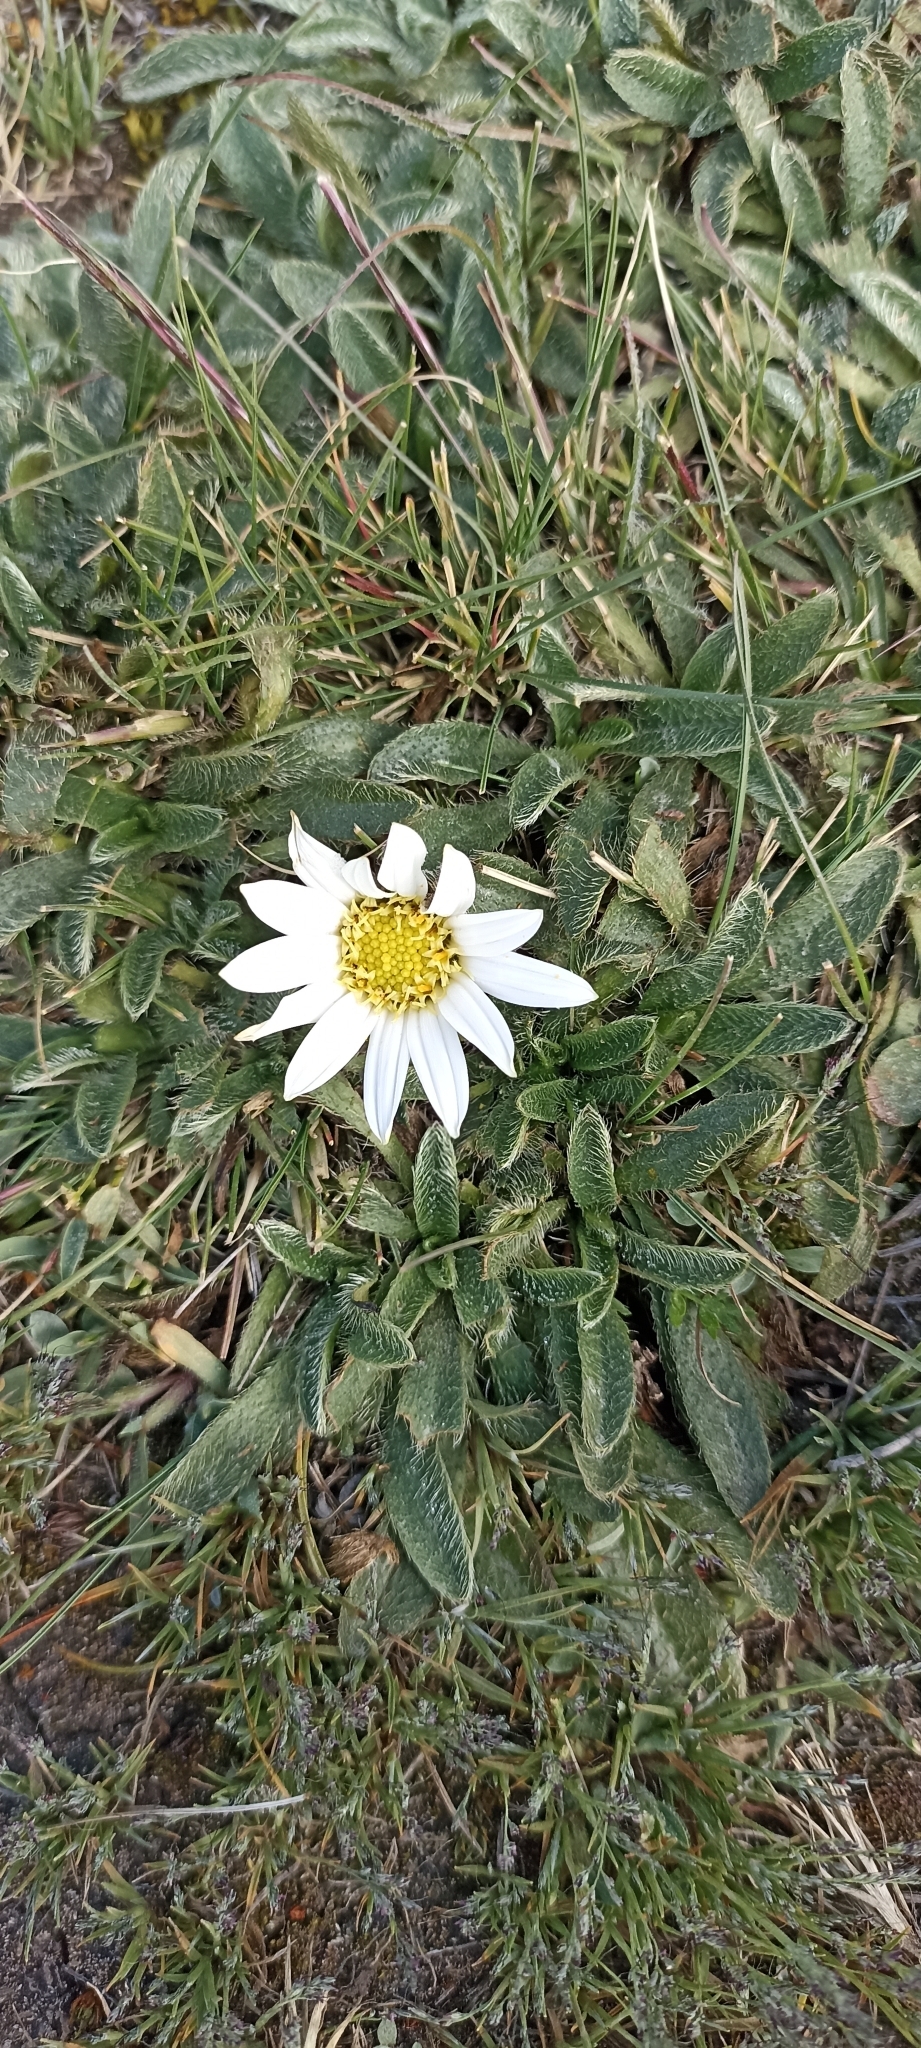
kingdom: Plantae
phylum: Tracheophyta
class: Magnoliopsida
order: Asterales
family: Asteraceae
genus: Misbrookea
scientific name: Misbrookea strigosissima
